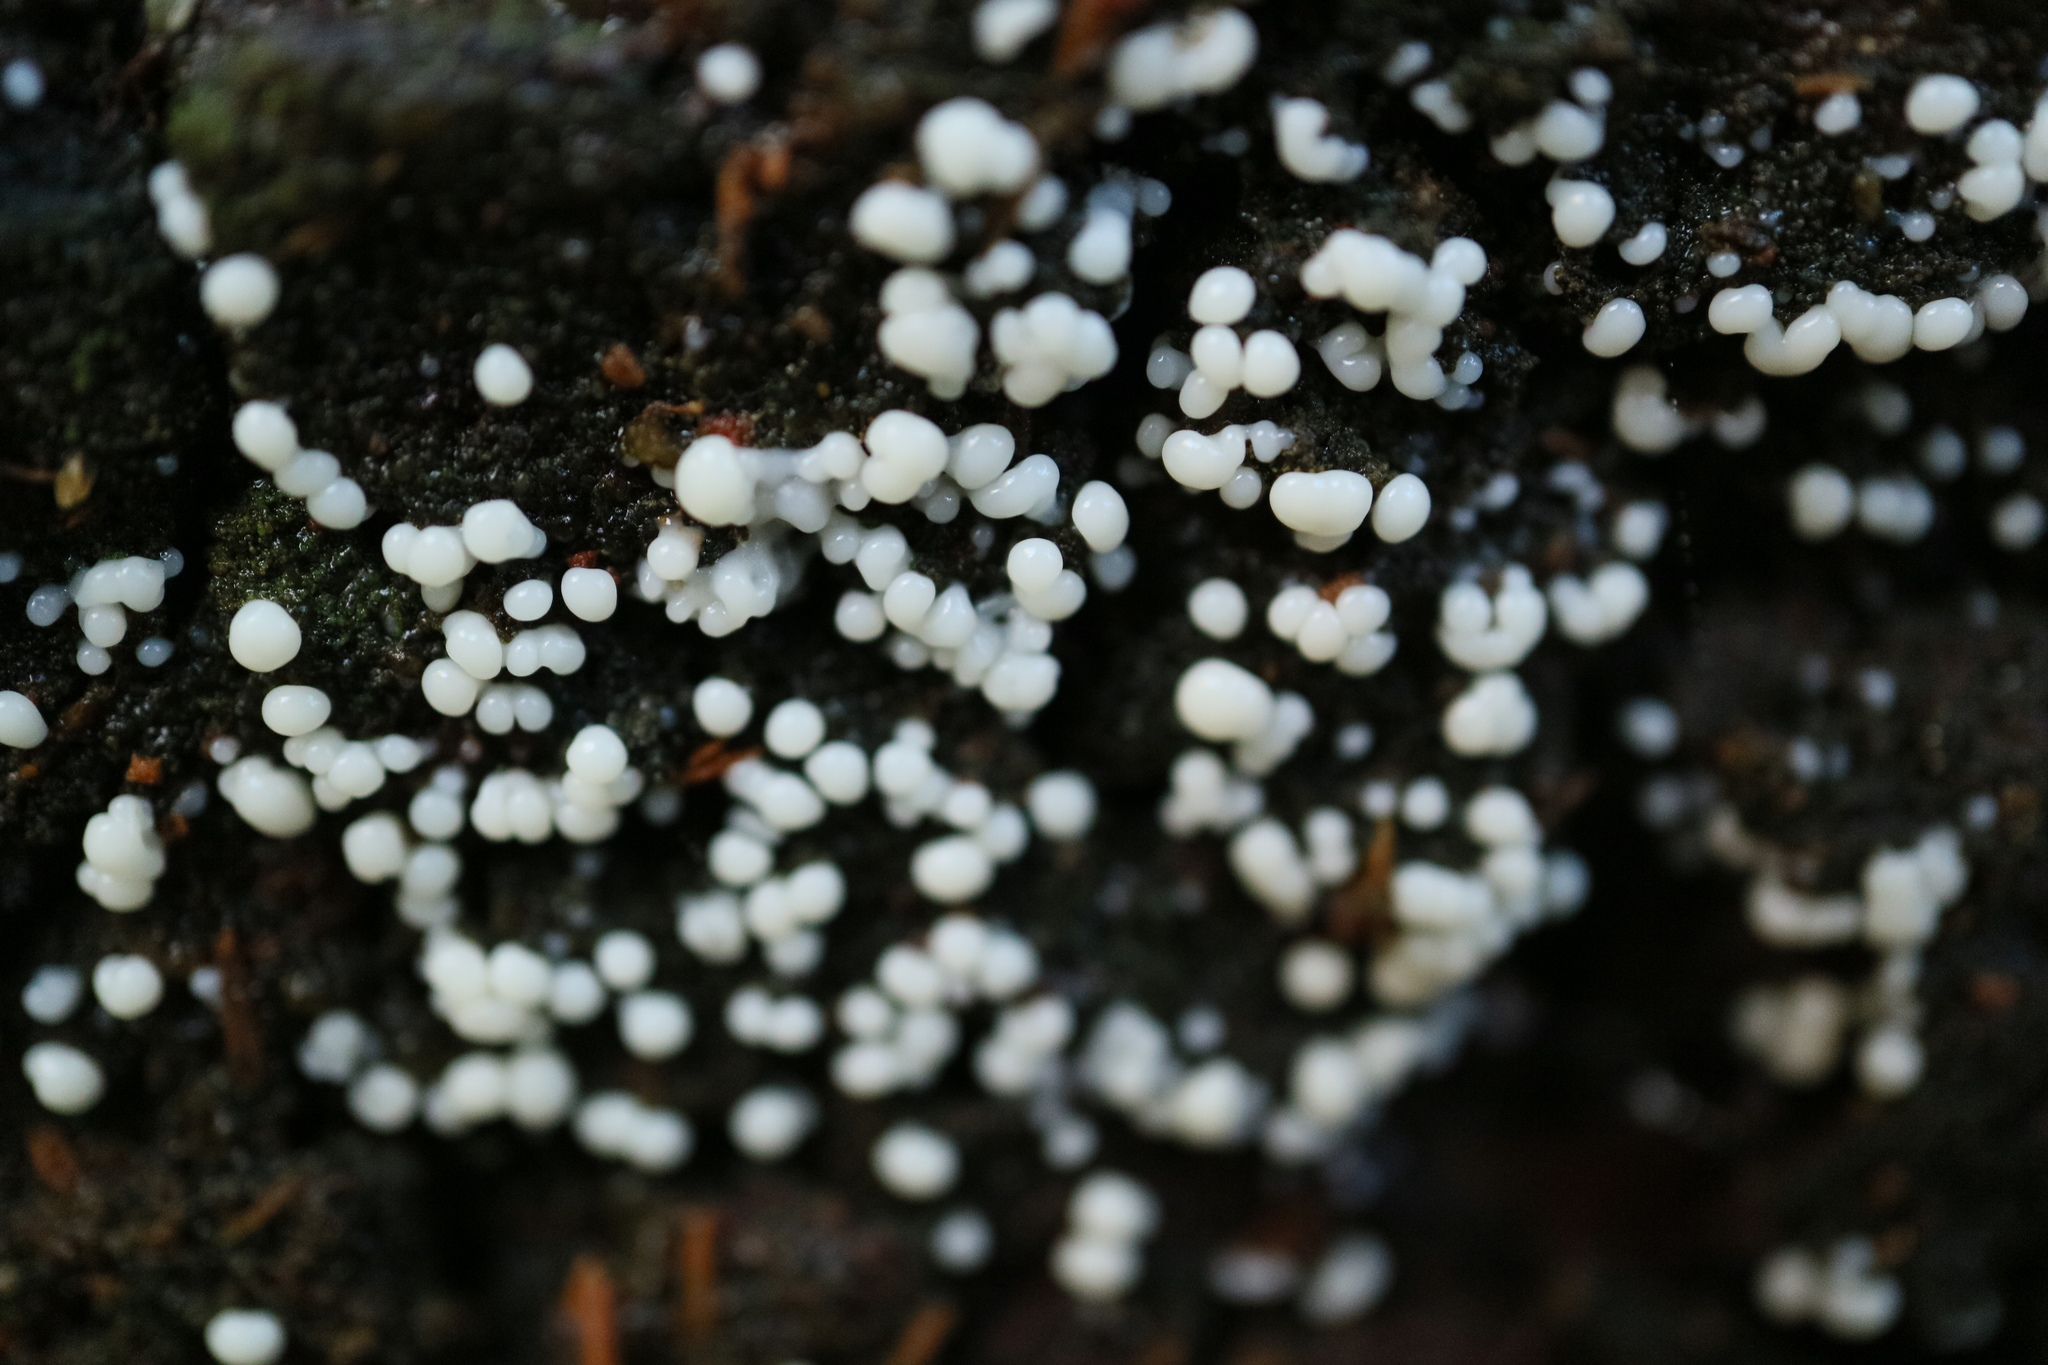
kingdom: Protozoa
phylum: Mycetozoa
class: Protosteliomycetes
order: Ceratiomyxales
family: Ceratiomyxaceae
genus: Ceratiomyxa
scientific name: Ceratiomyxa fruticulosa
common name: Honeycomb coral slime mold
